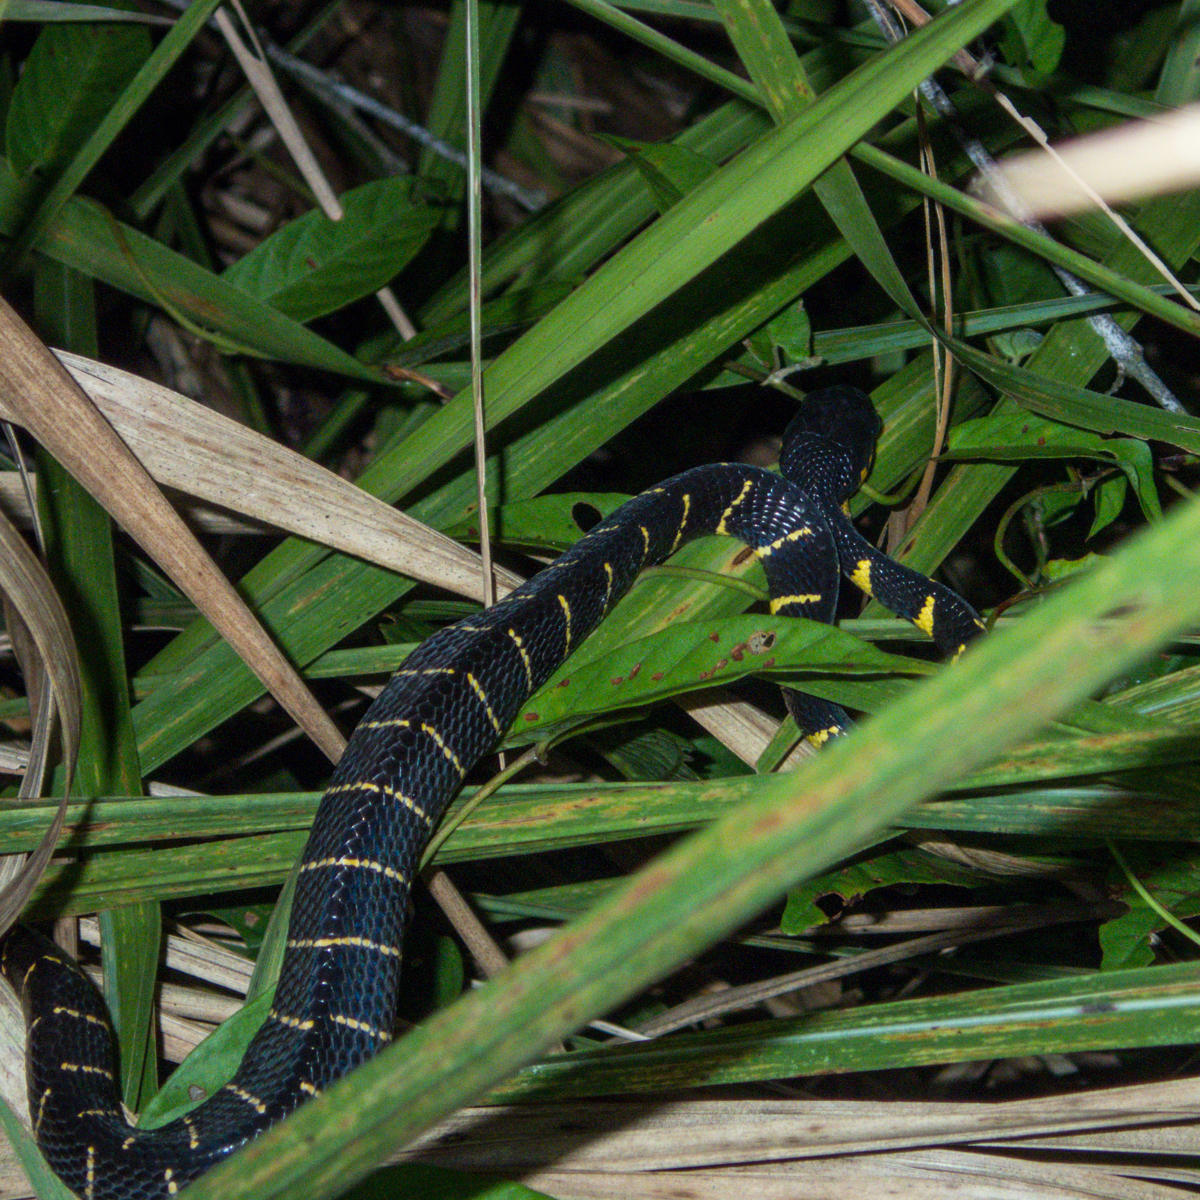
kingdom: Animalia
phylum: Chordata
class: Squamata
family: Colubridae
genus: Boiga
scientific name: Boiga melanota
